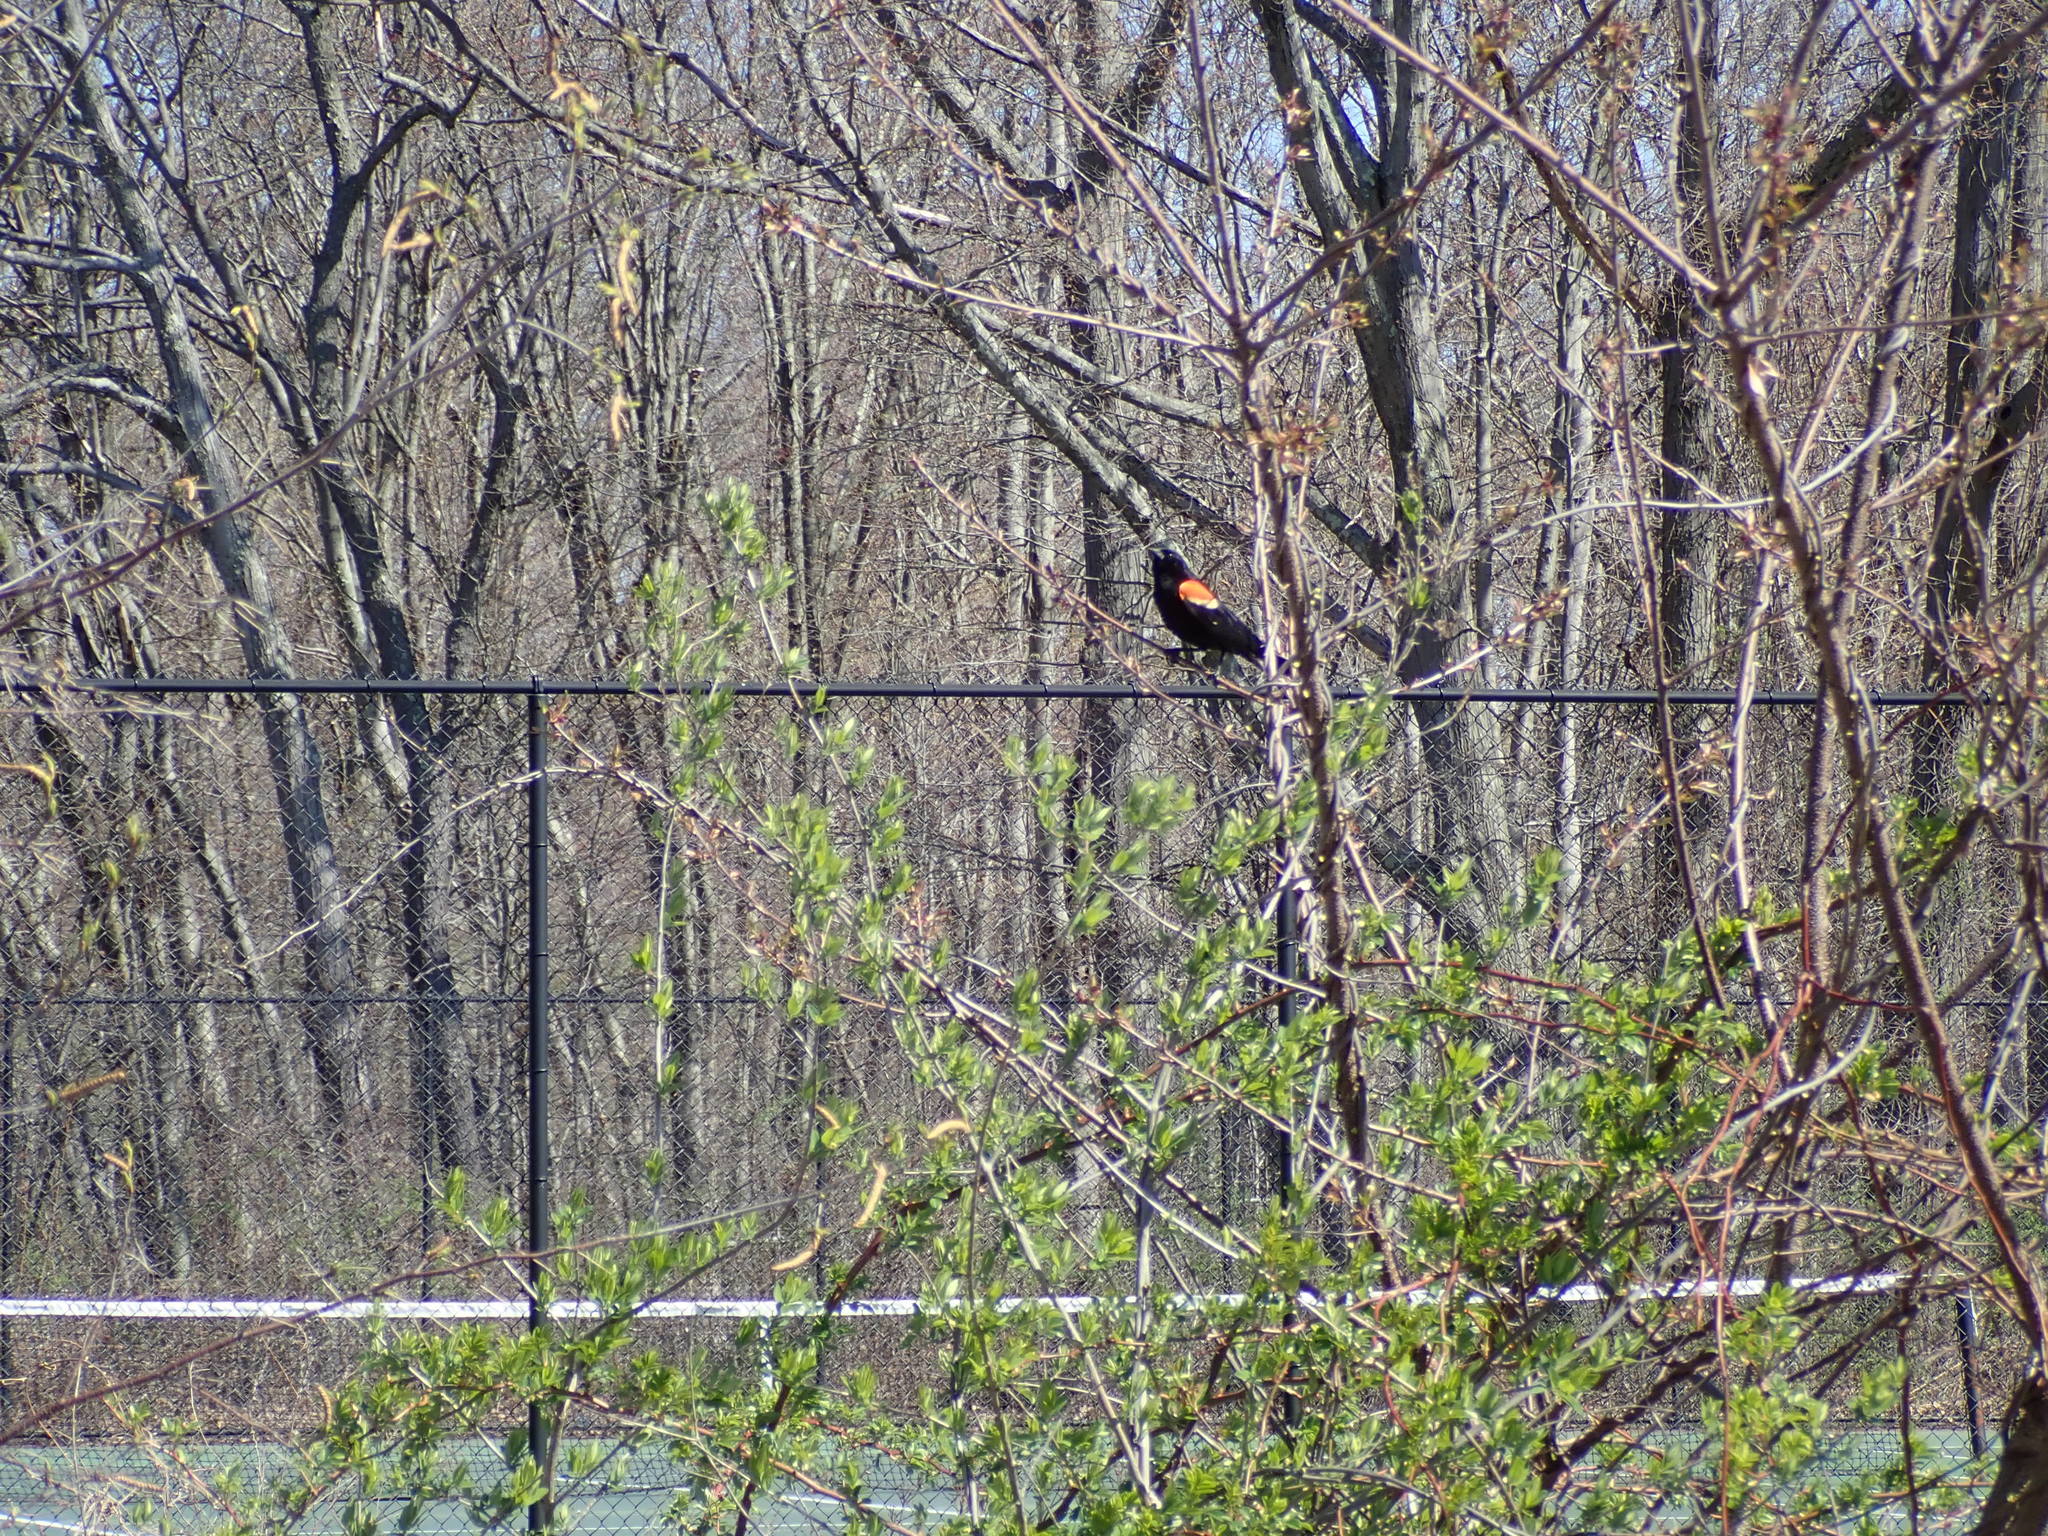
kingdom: Animalia
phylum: Chordata
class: Aves
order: Passeriformes
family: Icteridae
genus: Agelaius
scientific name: Agelaius phoeniceus
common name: Red-winged blackbird
